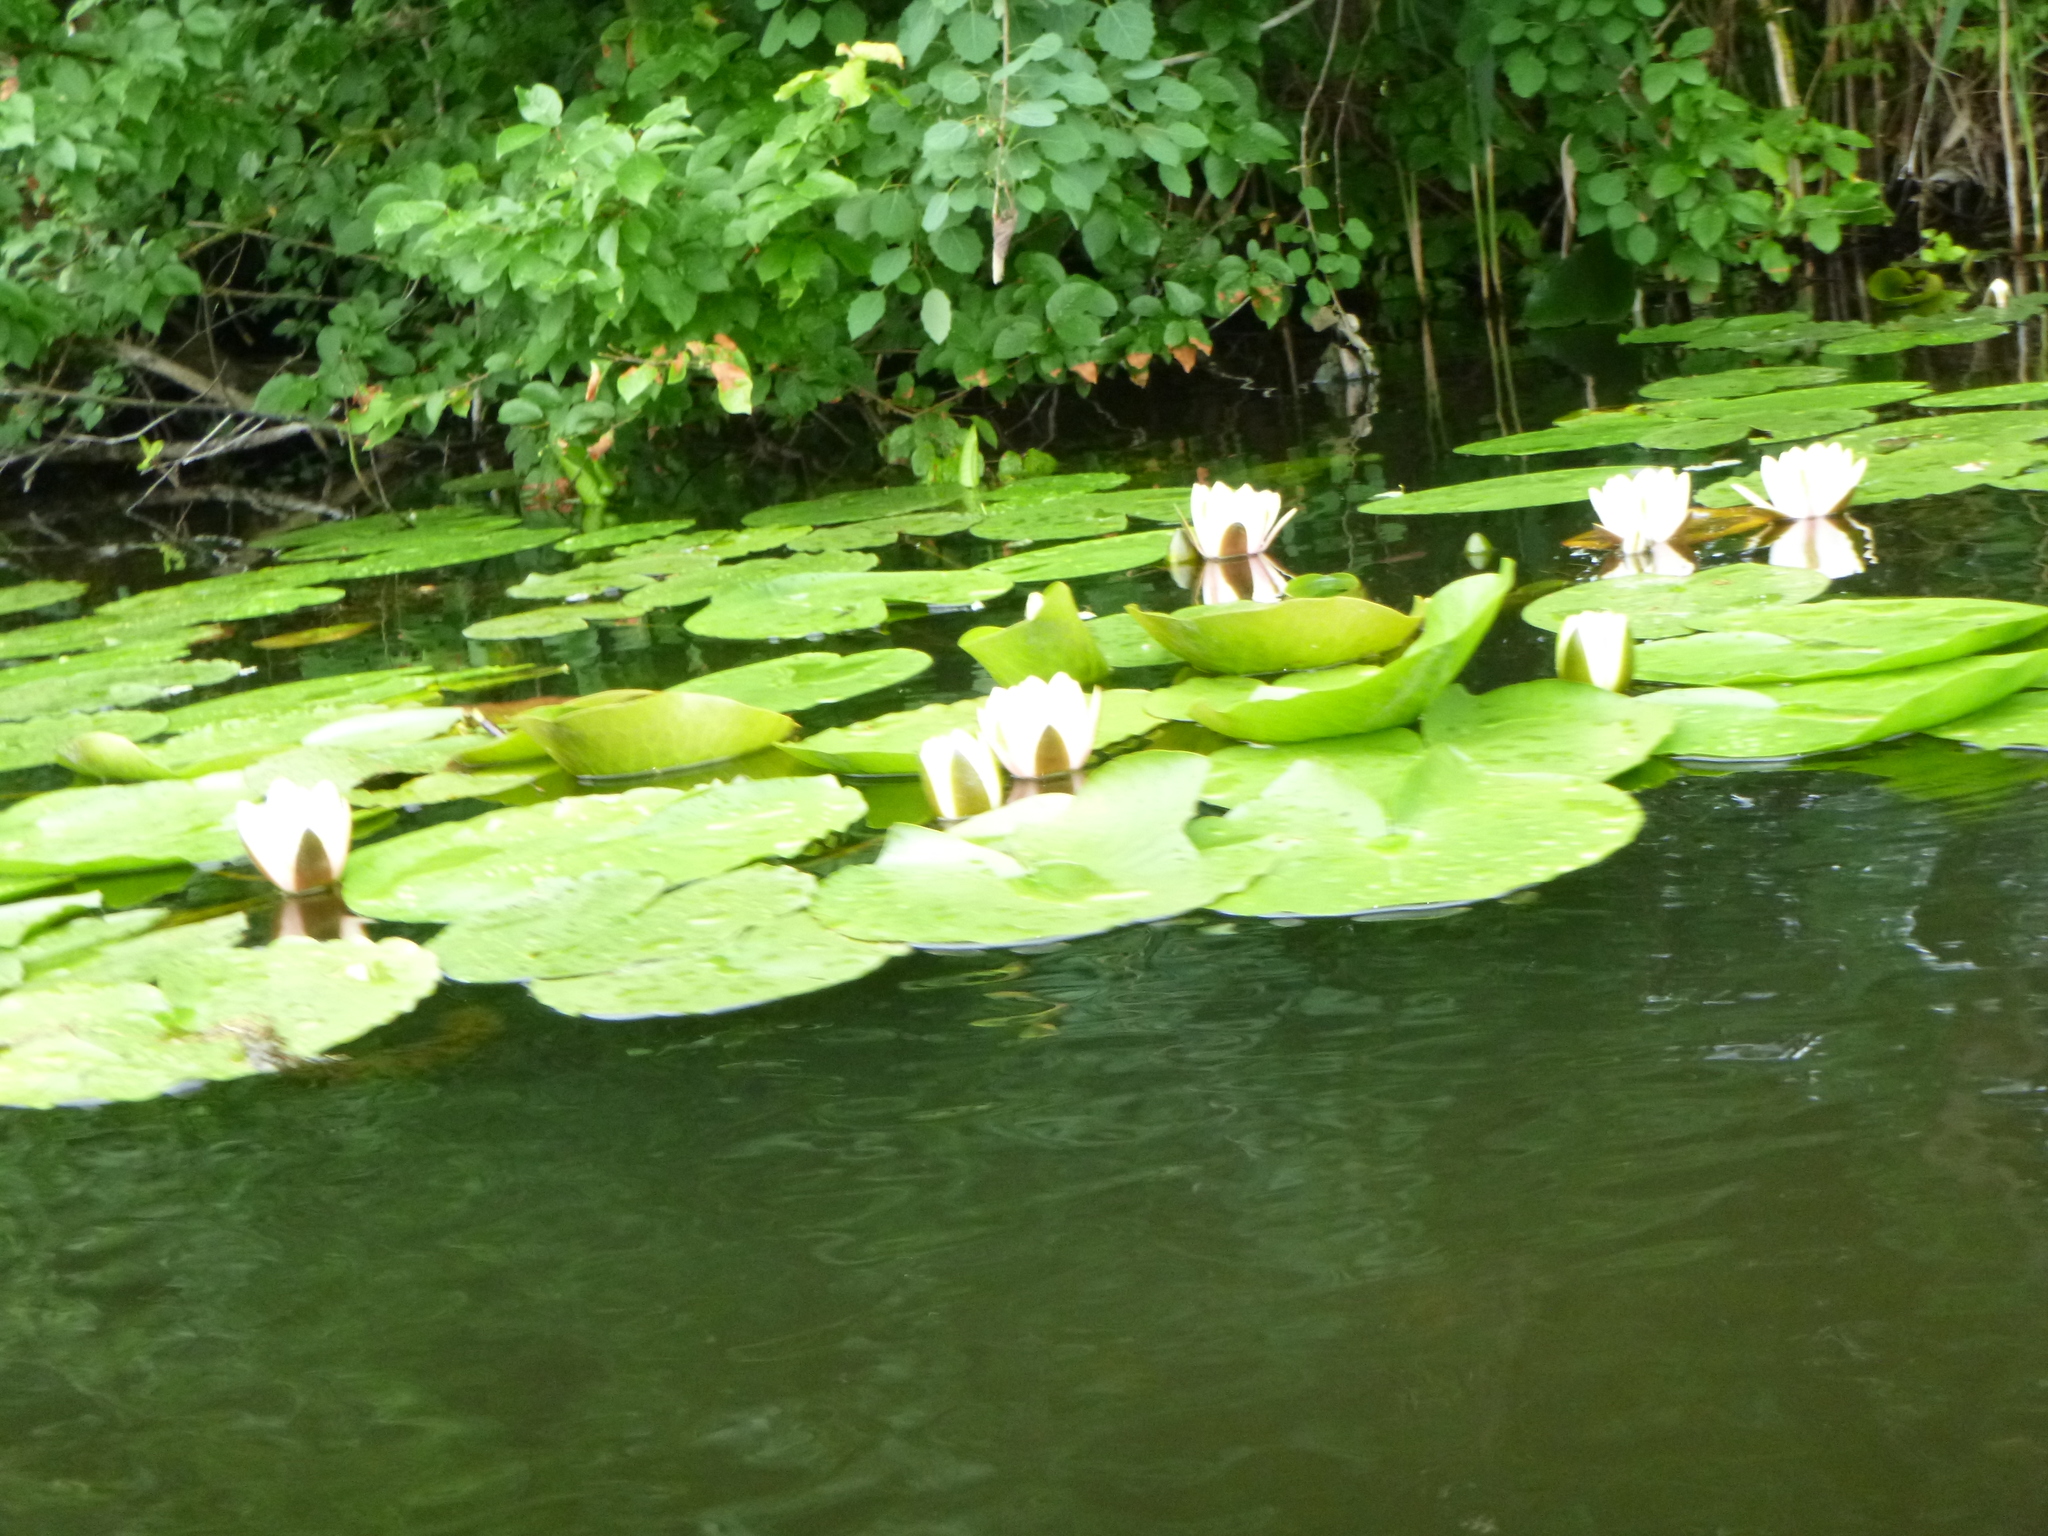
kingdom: Plantae
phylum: Tracheophyta
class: Magnoliopsida
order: Nymphaeales
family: Nymphaeaceae
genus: Nymphaea
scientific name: Nymphaea alba
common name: White water-lily
